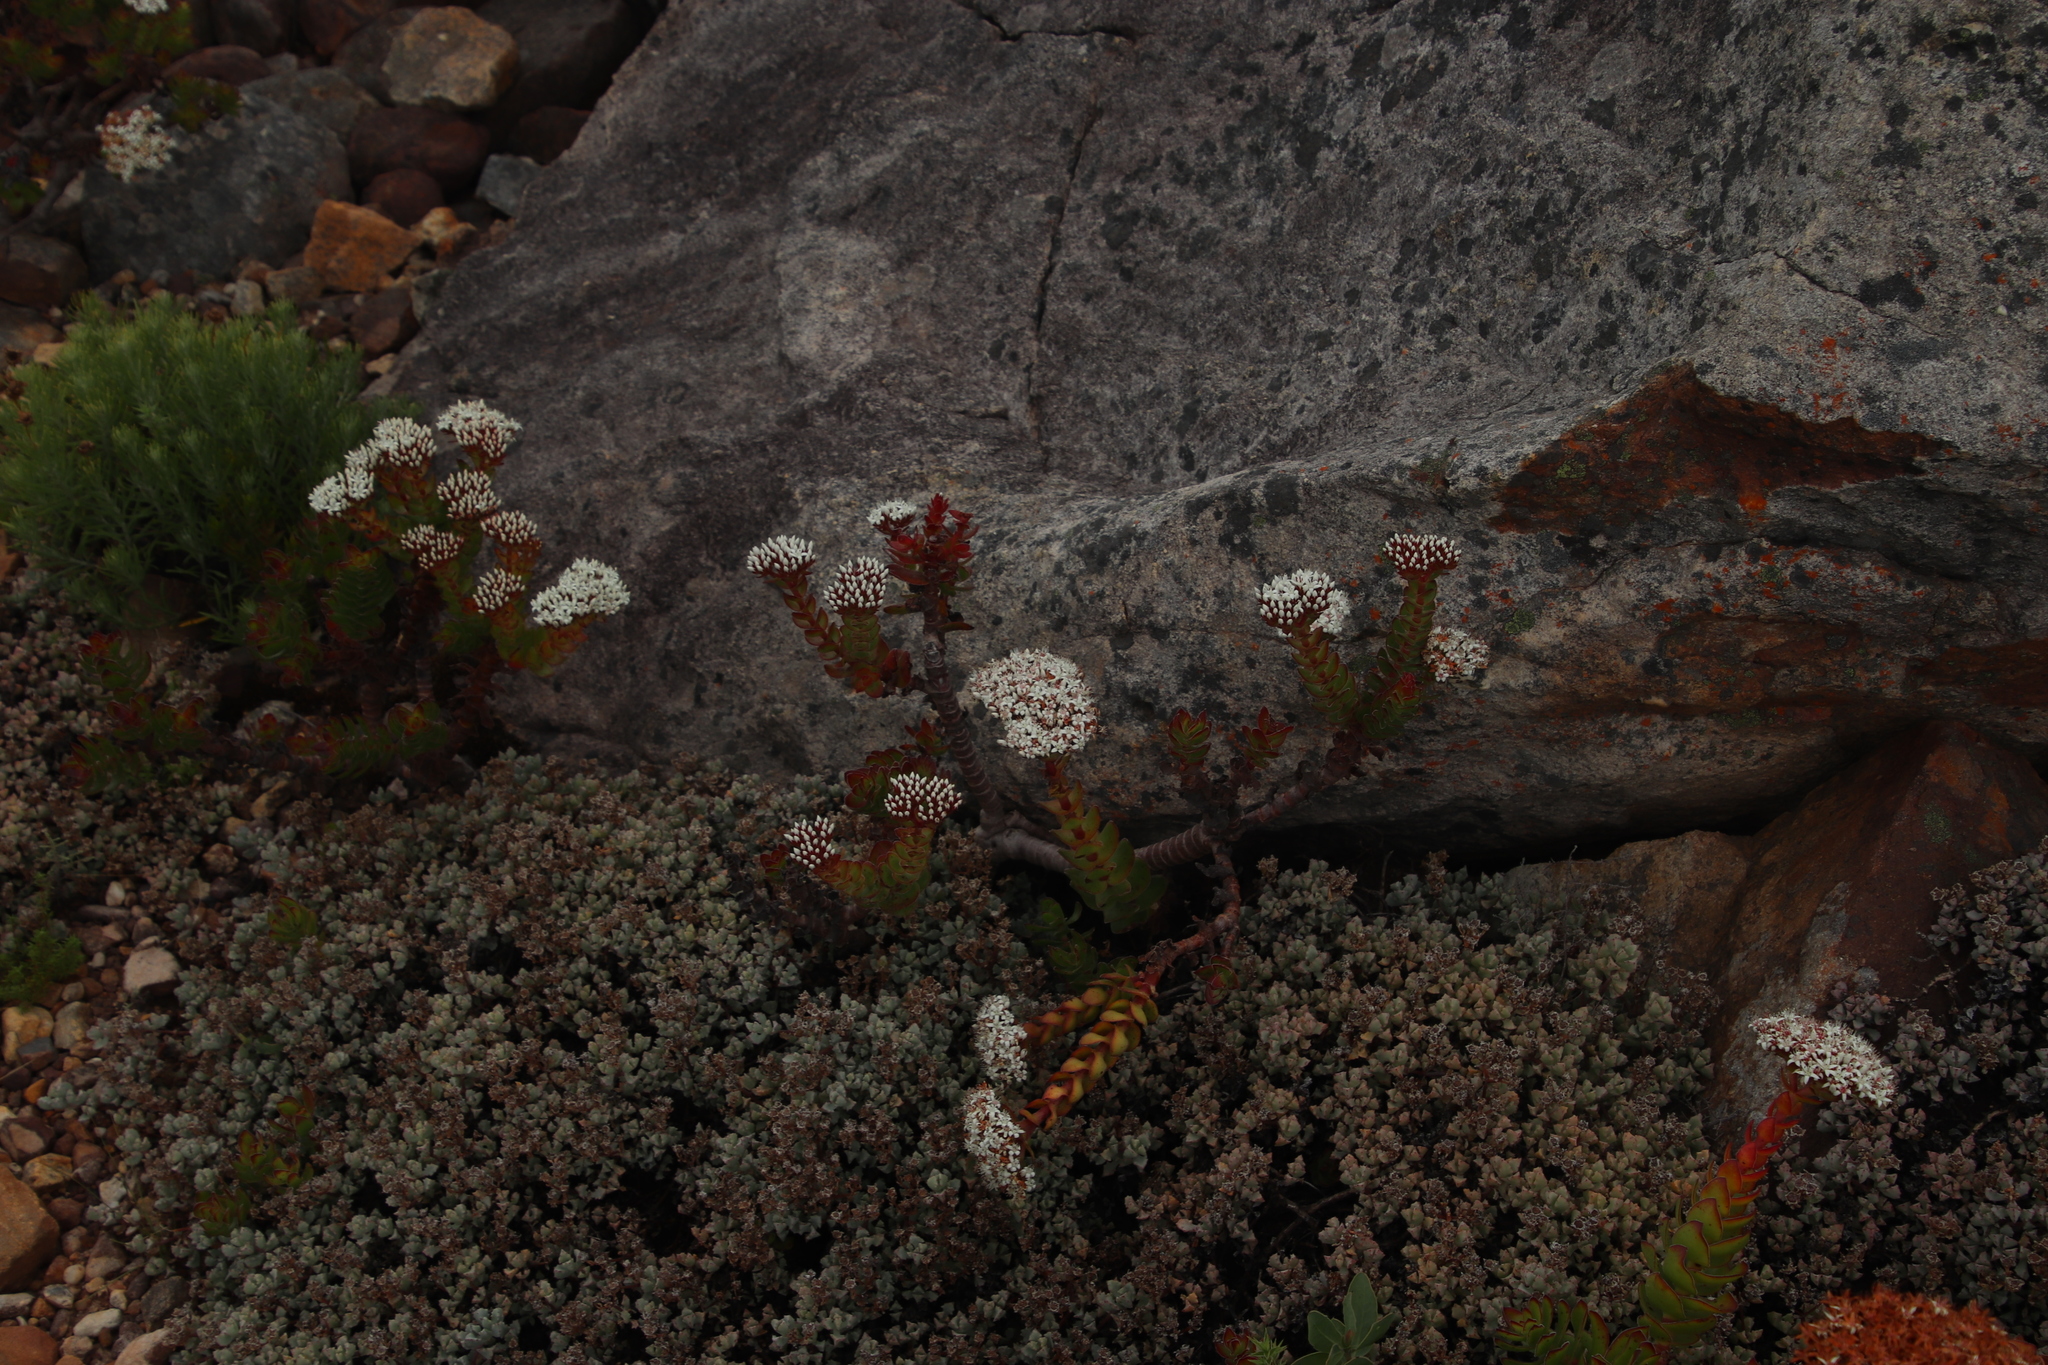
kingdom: Plantae
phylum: Tracheophyta
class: Magnoliopsida
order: Saxifragales
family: Crassulaceae
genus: Crassula
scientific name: Crassula undulata
